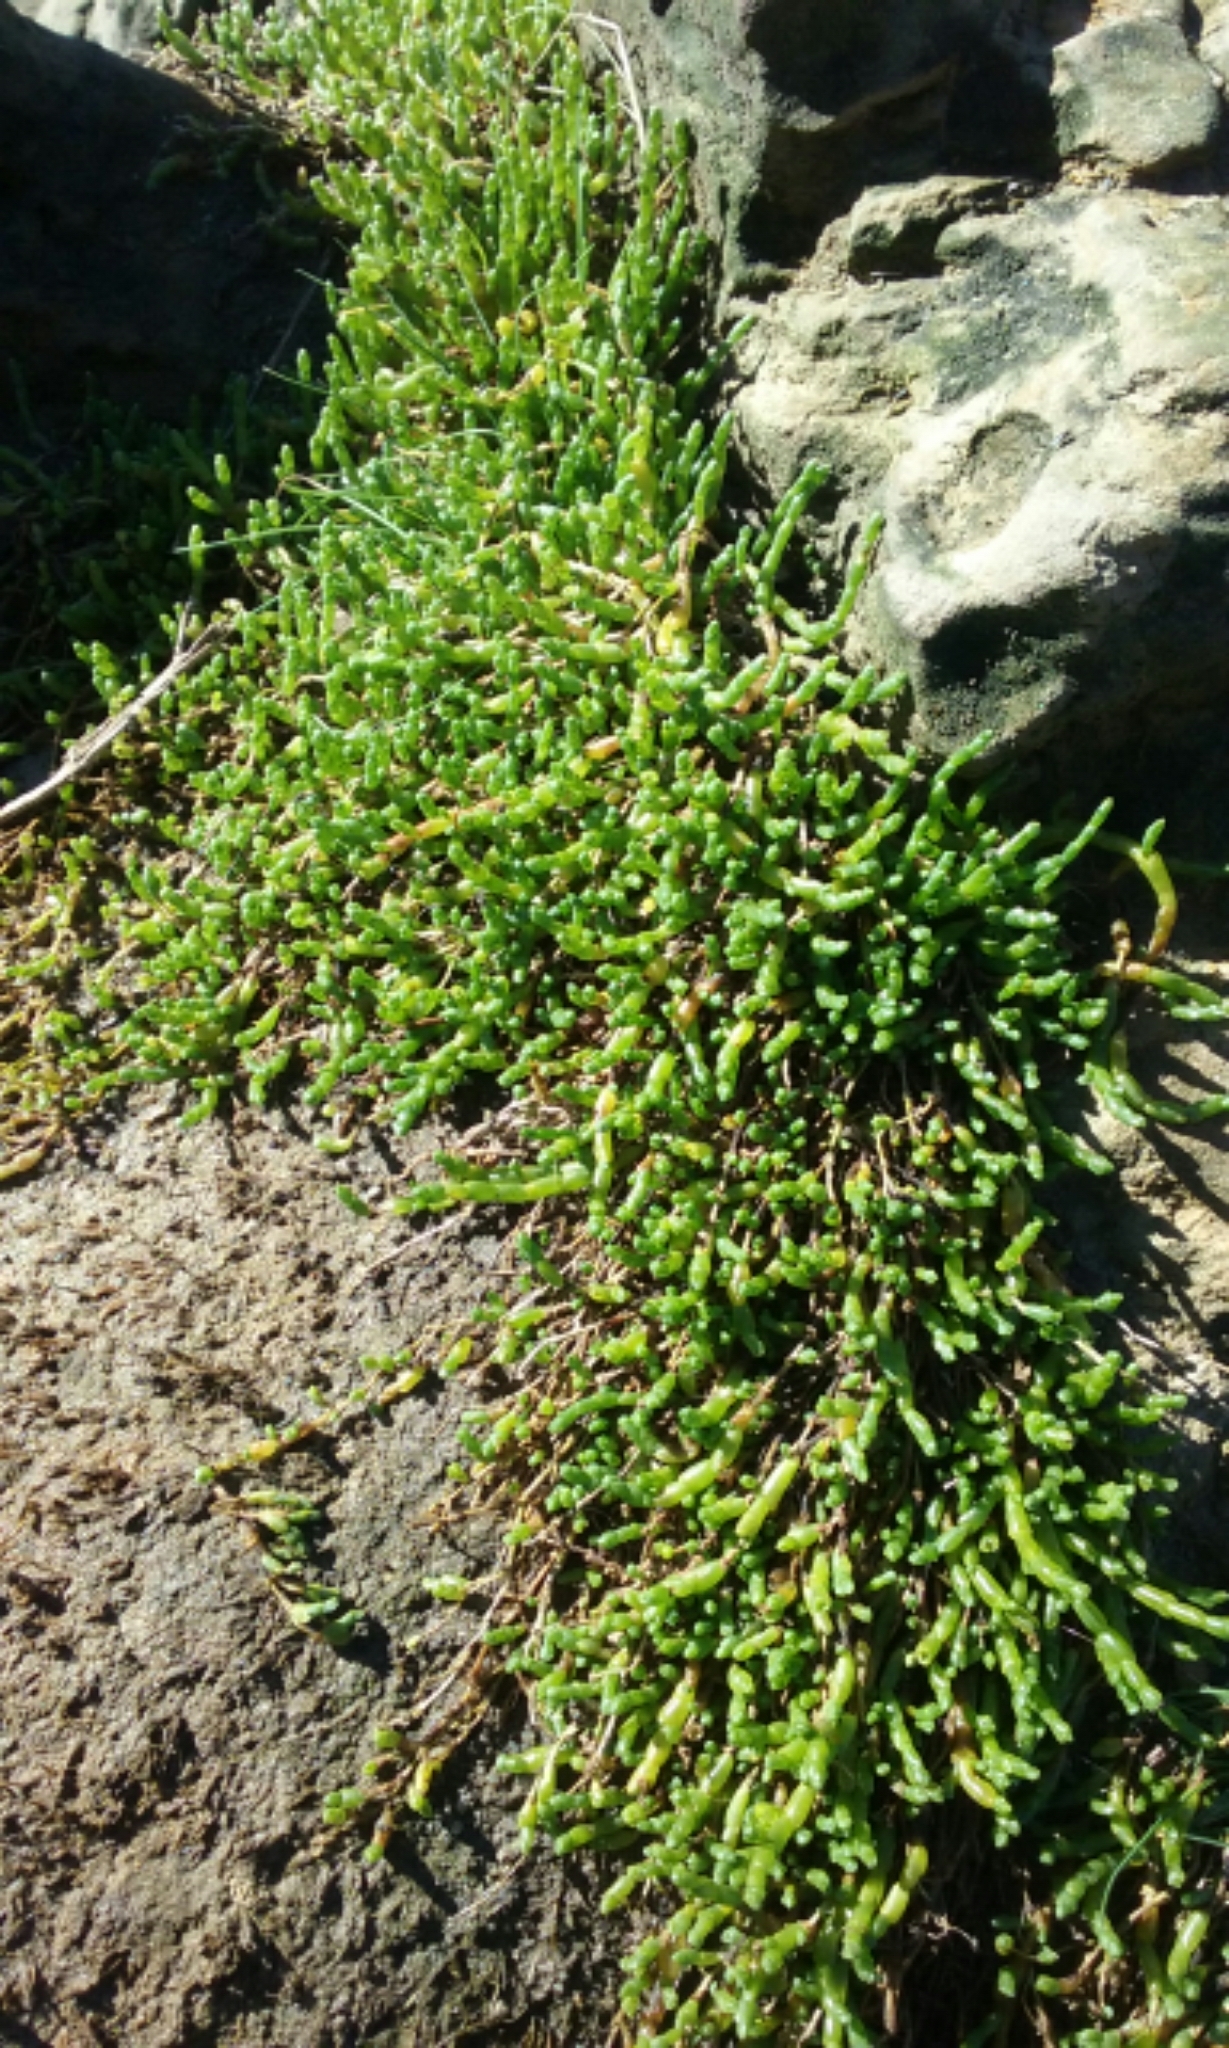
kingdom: Plantae
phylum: Tracheophyta
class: Magnoliopsida
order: Caryophyllales
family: Amaranthaceae
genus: Salicornia
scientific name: Salicornia quinqueflora
